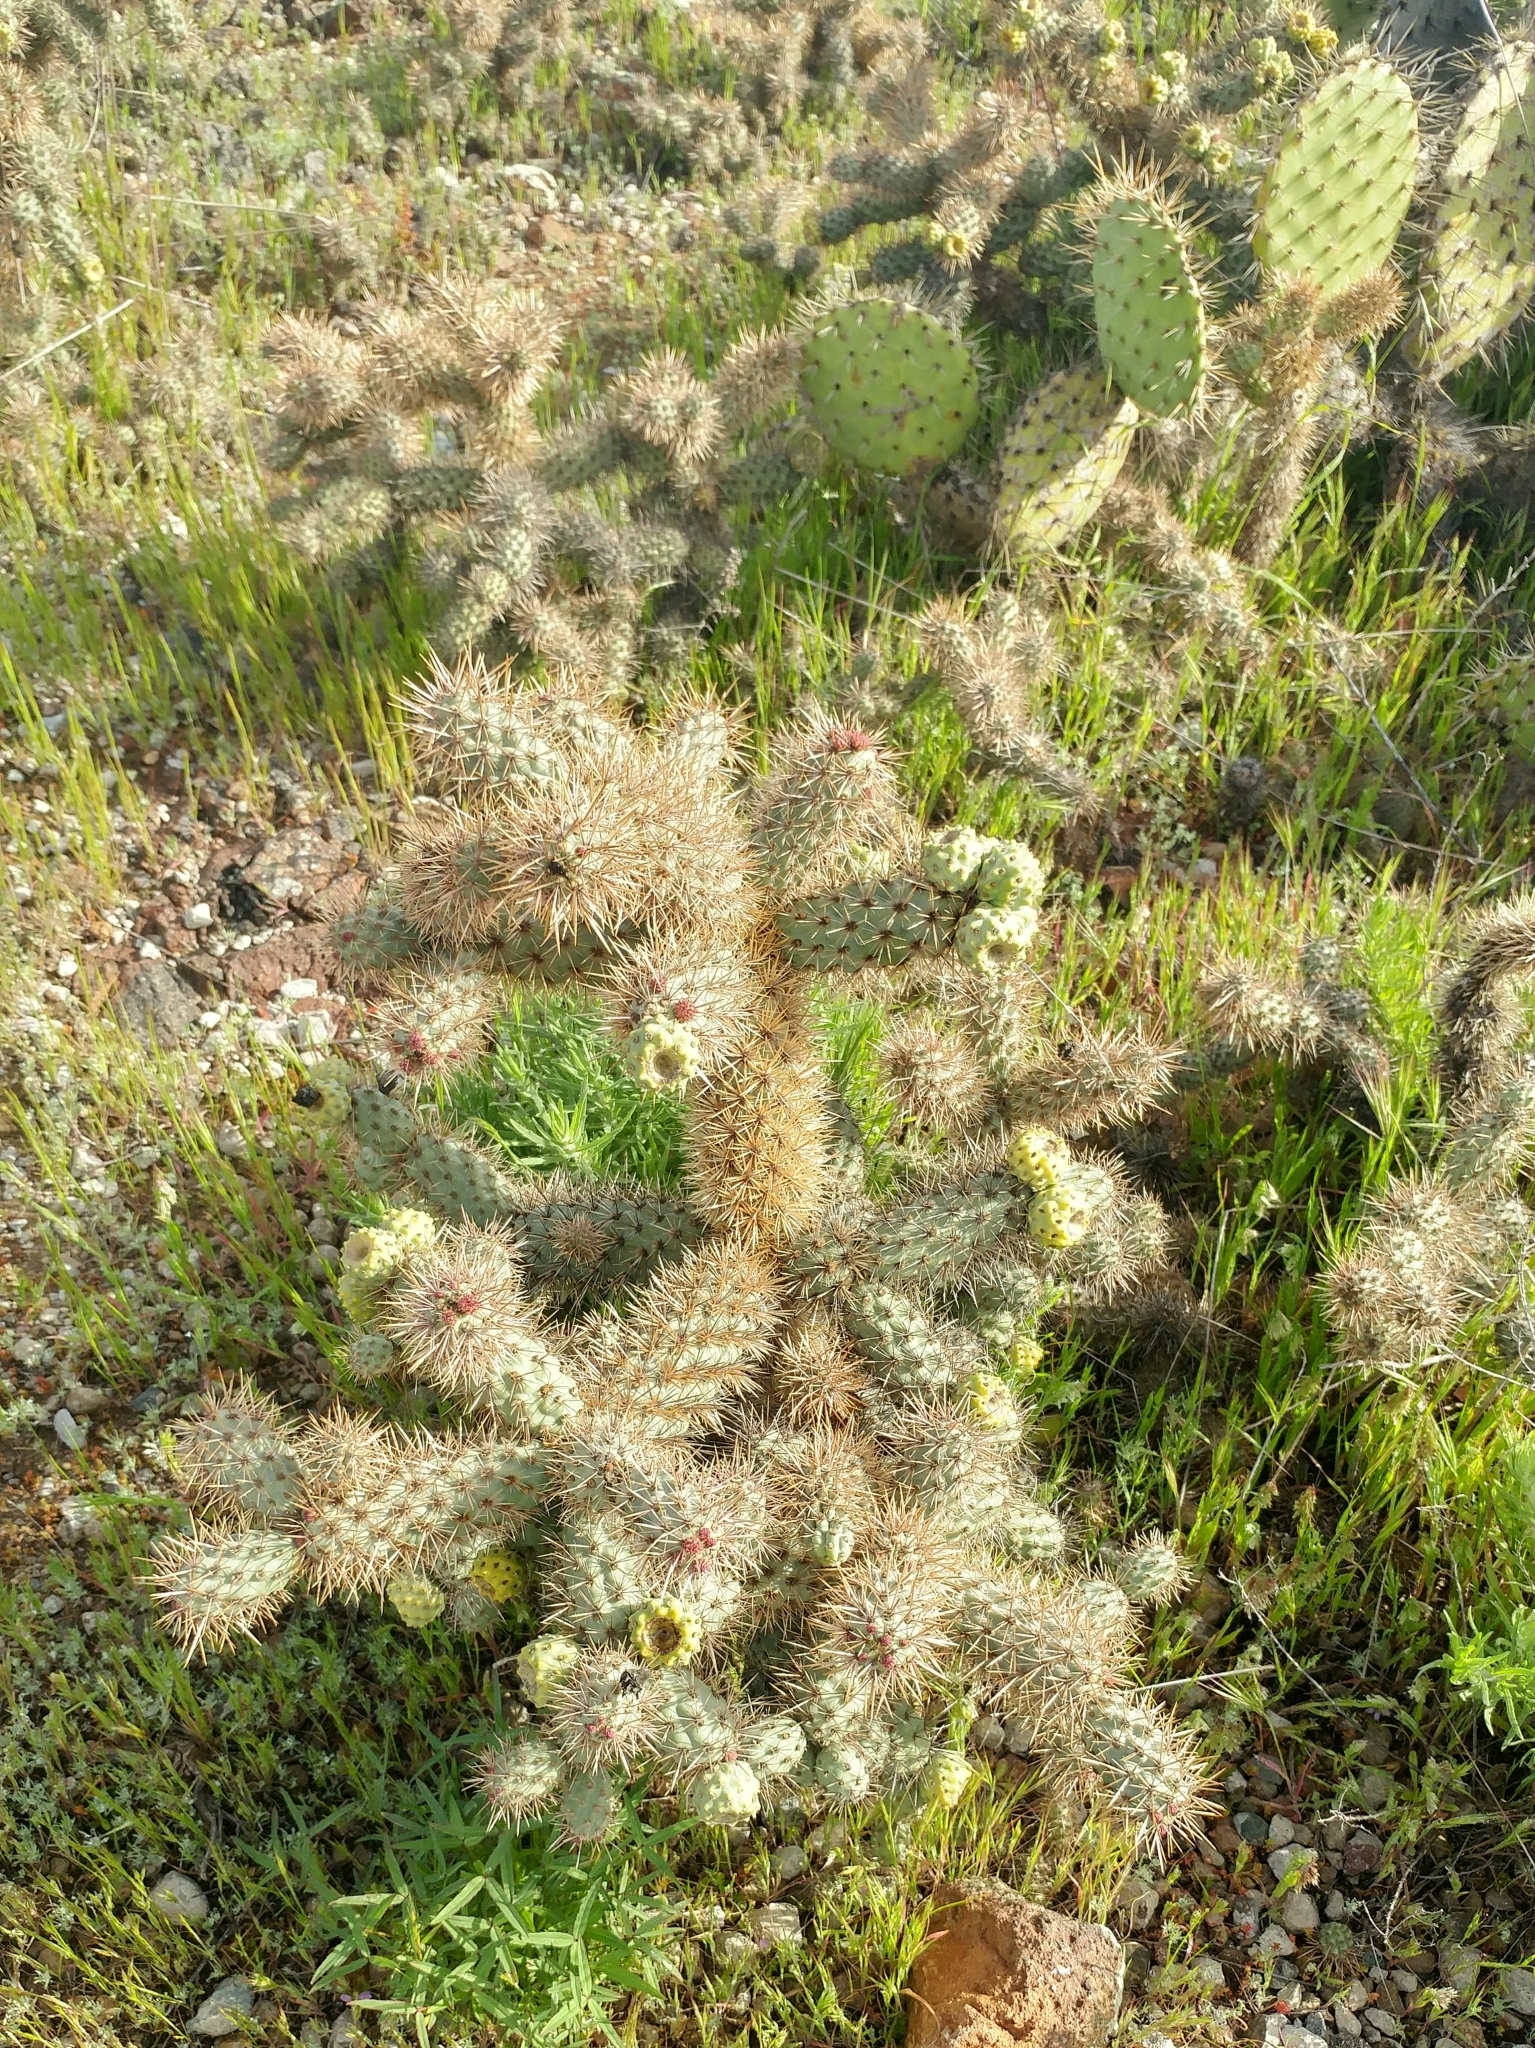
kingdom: Plantae
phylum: Tracheophyta
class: Magnoliopsida
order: Caryophyllales
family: Cactaceae
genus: Cylindropuntia
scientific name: Cylindropuntia prolifera
